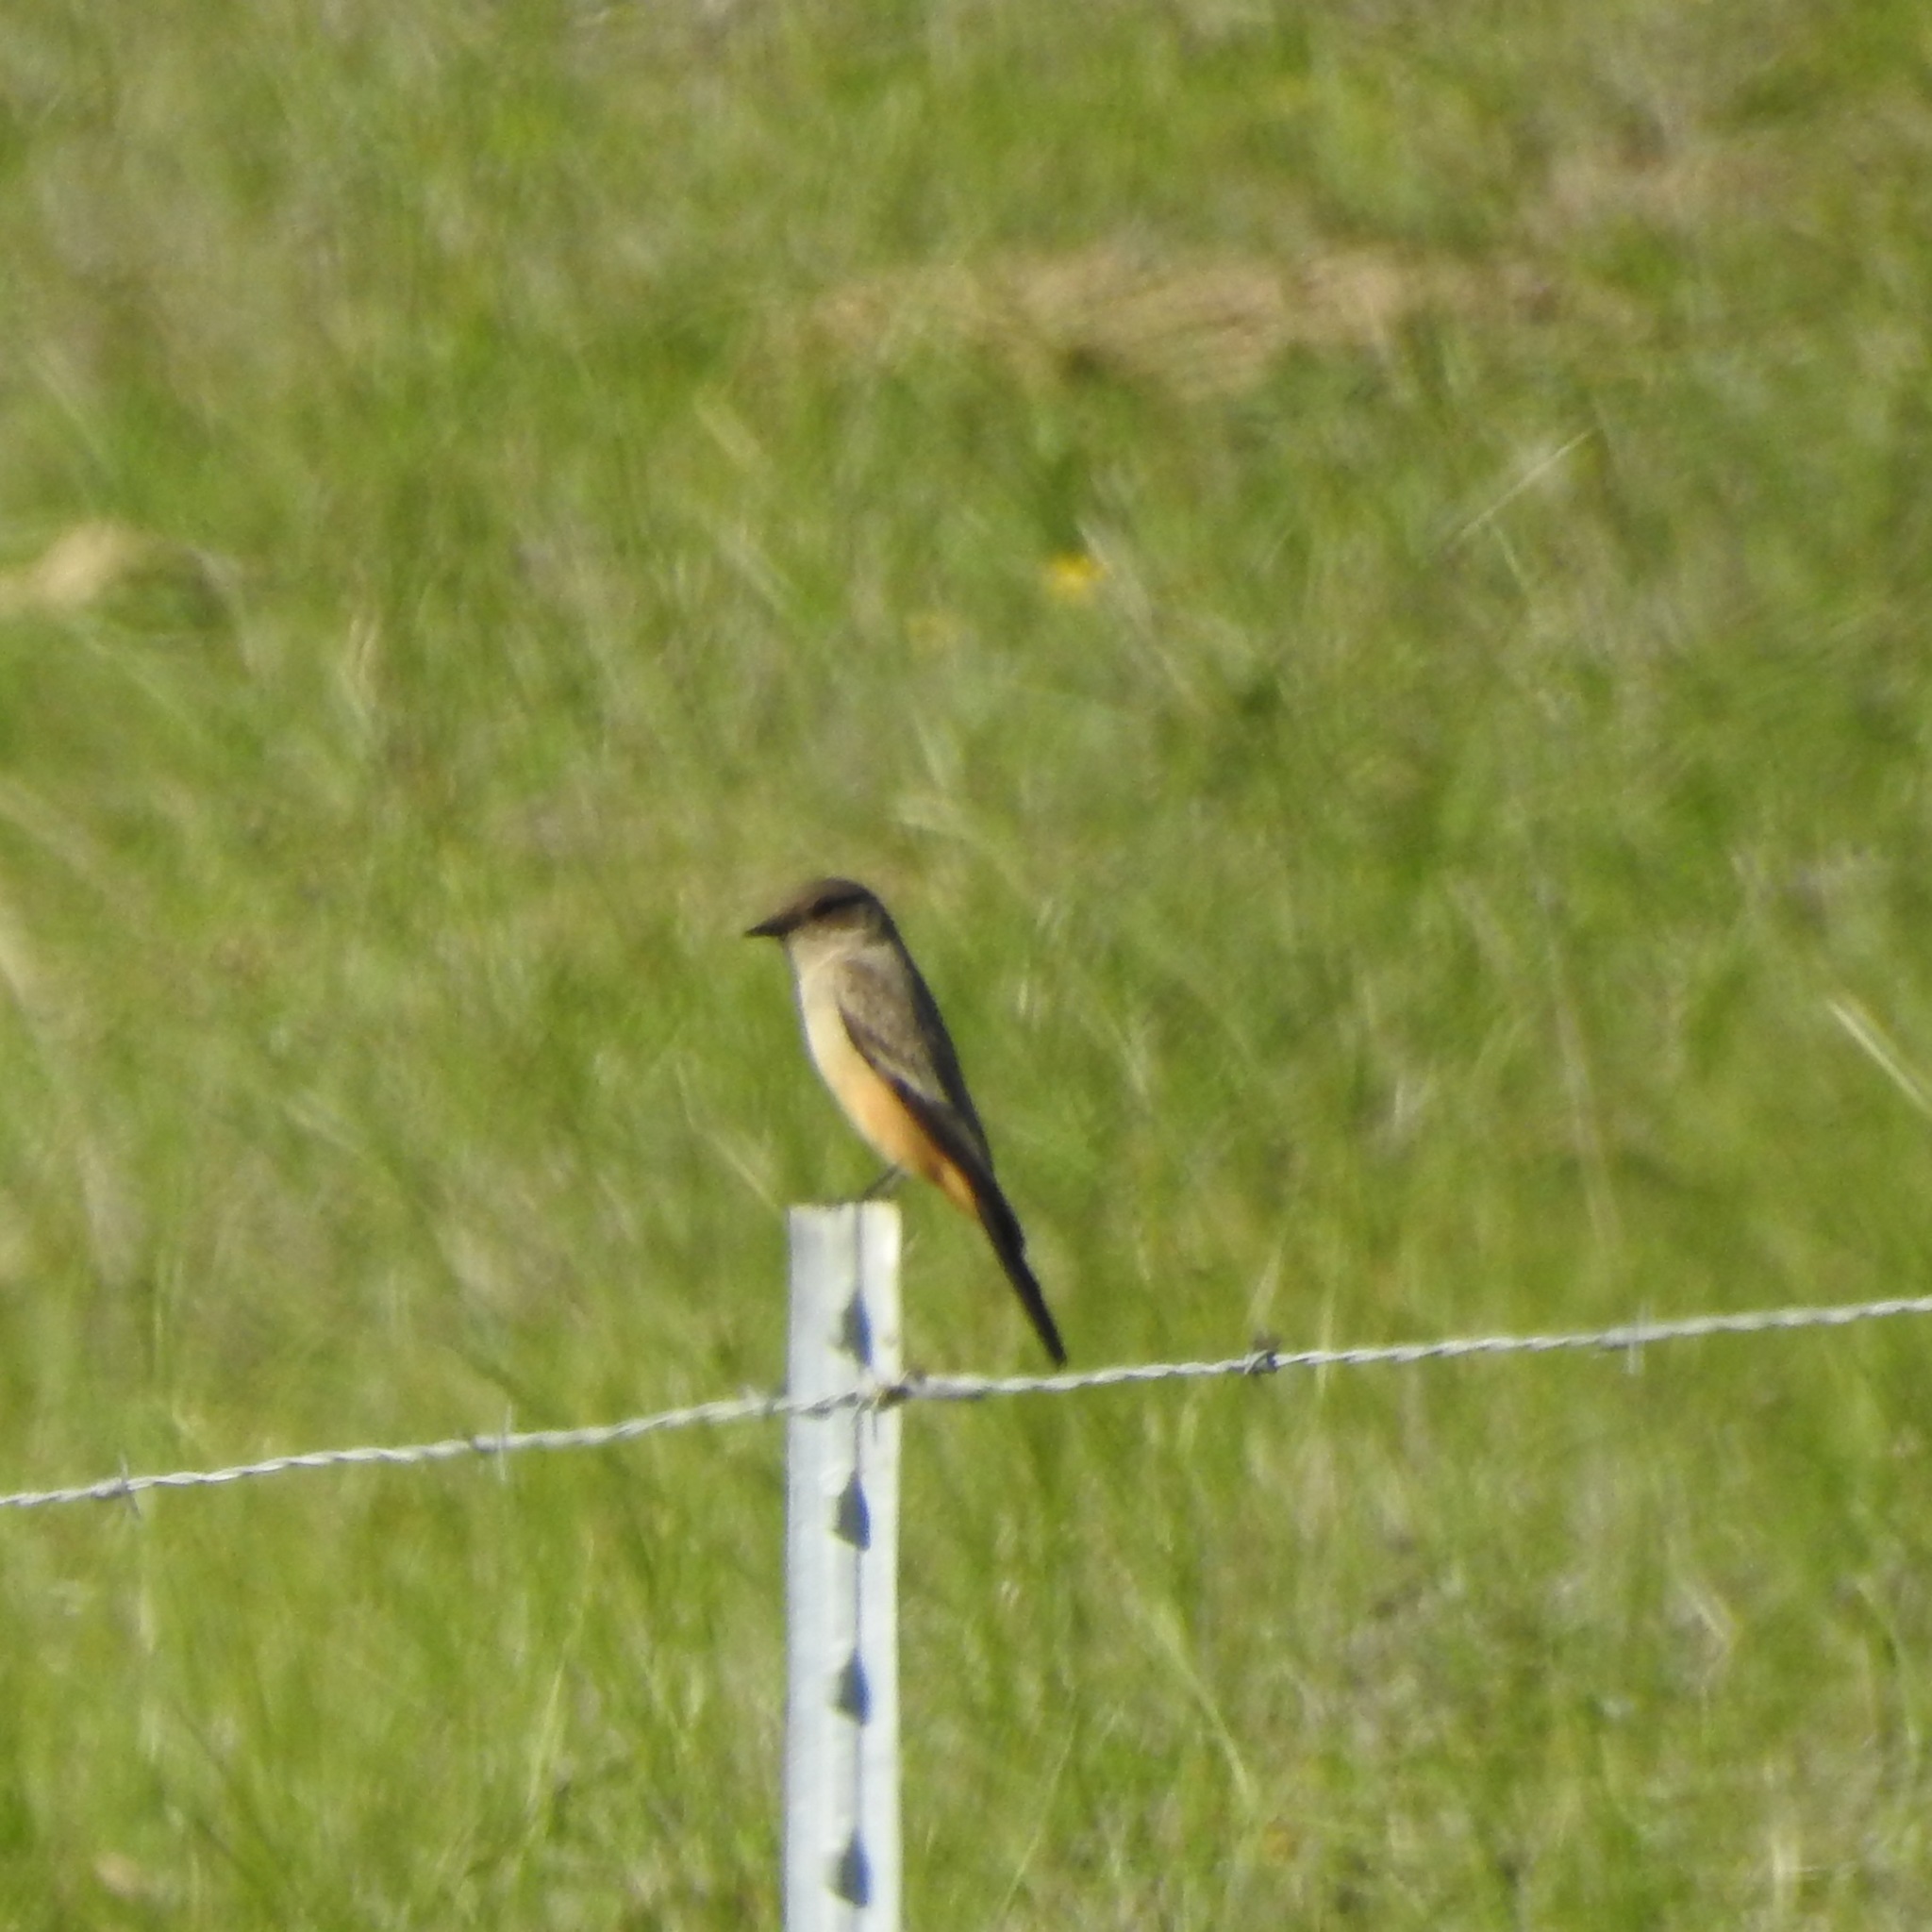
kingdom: Animalia
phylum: Chordata
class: Aves
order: Passeriformes
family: Tyrannidae
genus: Sayornis
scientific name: Sayornis saya
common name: Say's phoebe
